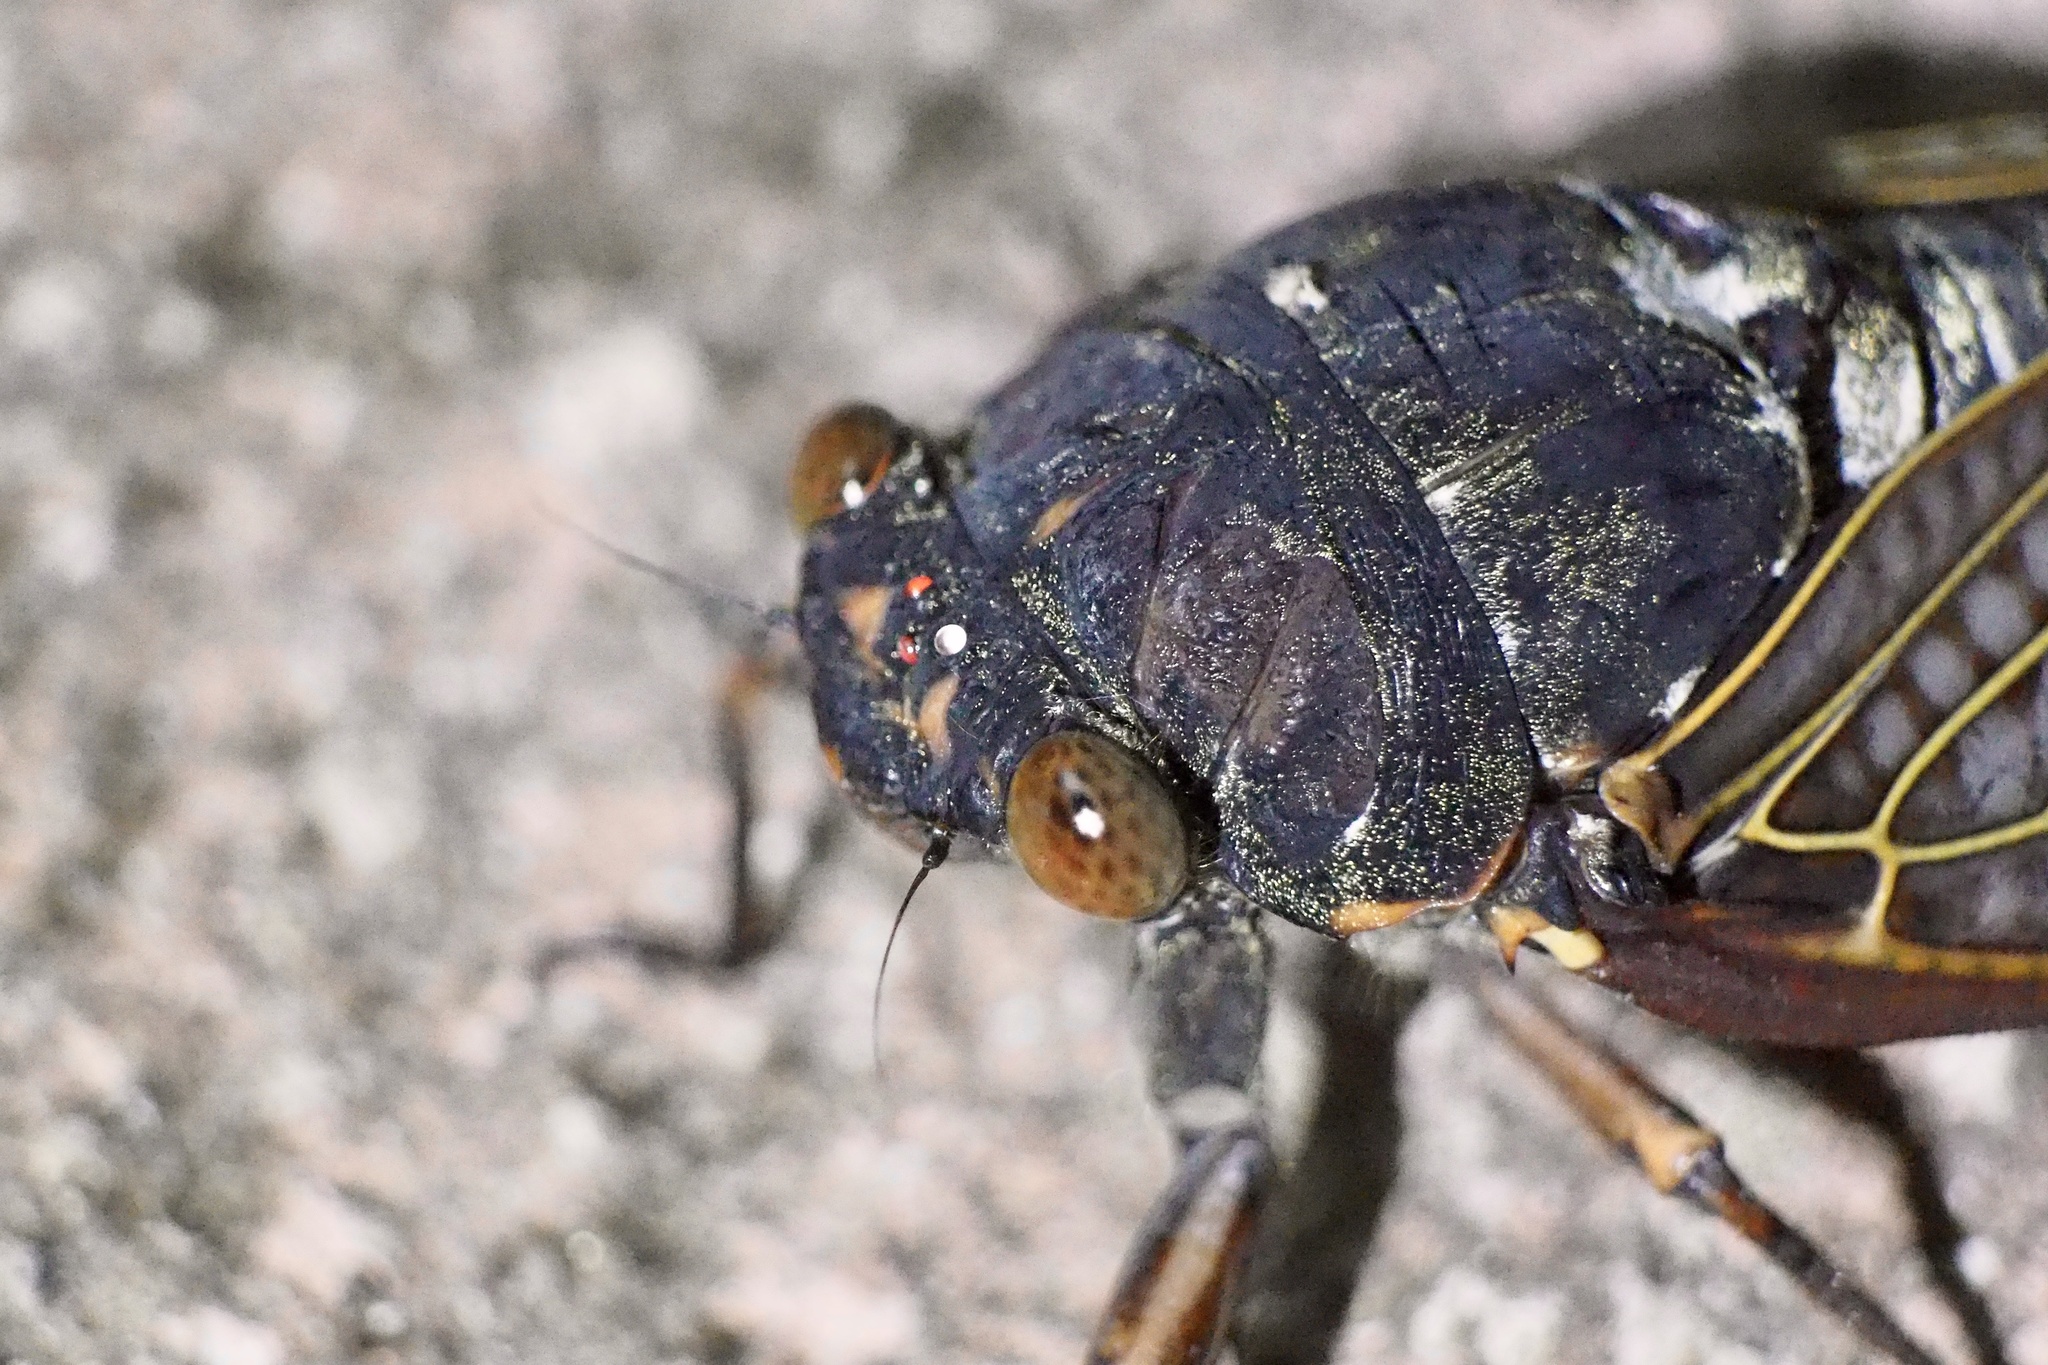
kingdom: Animalia
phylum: Arthropoda
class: Insecta
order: Hemiptera
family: Cicadidae
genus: Graptopsaltria
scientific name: Graptopsaltria nigrofuscata
